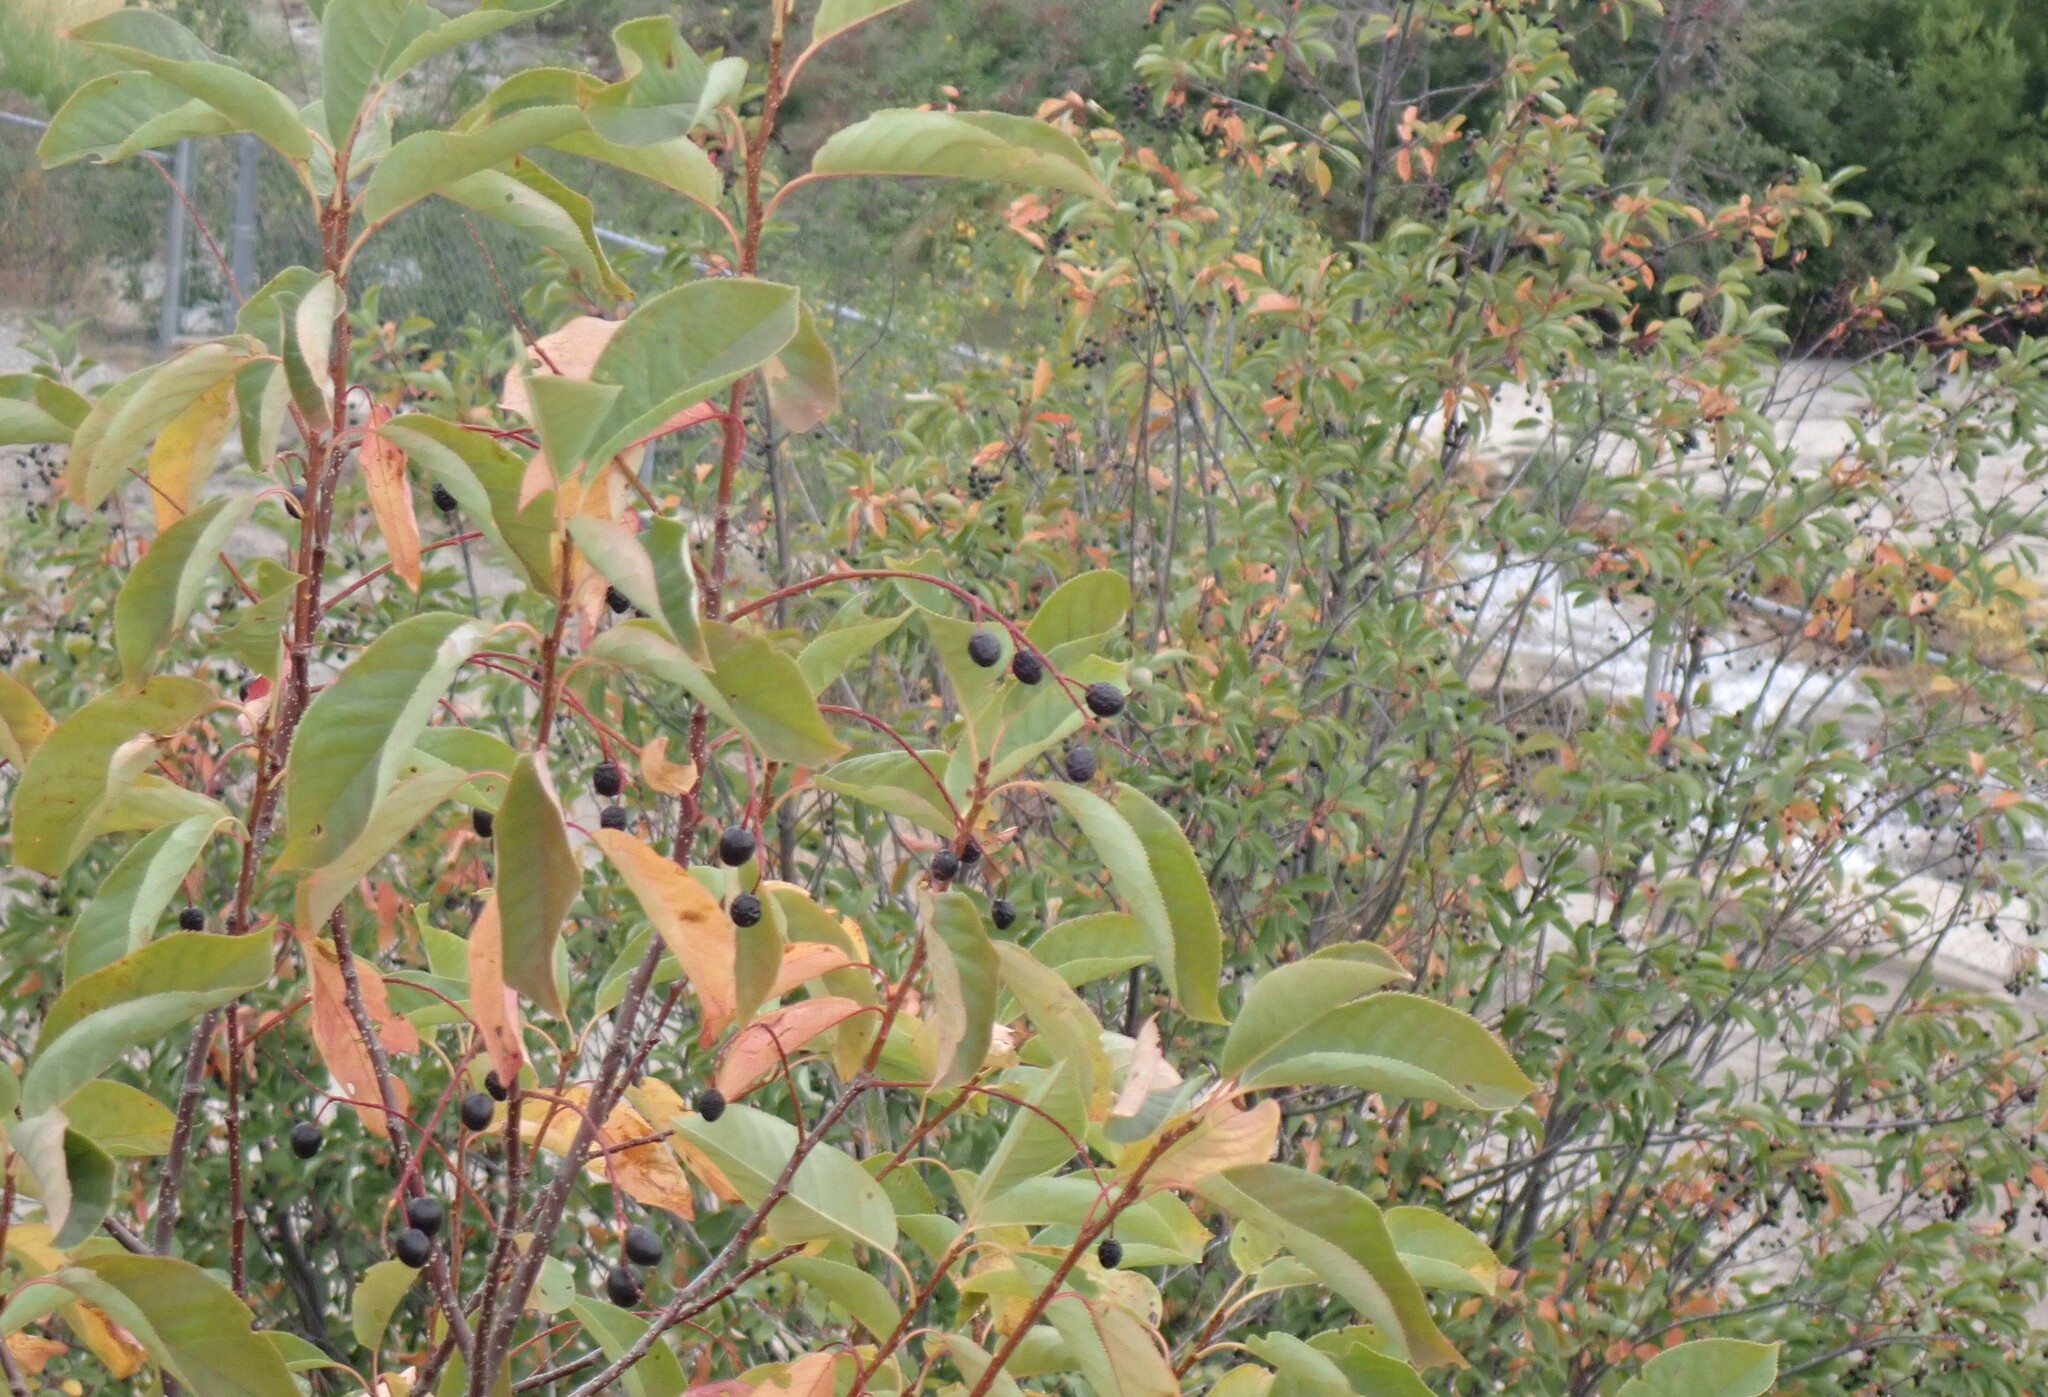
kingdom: Plantae
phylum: Tracheophyta
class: Magnoliopsida
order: Rosales
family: Rosaceae
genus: Prunus
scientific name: Prunus virginiana
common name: Chokecherry
